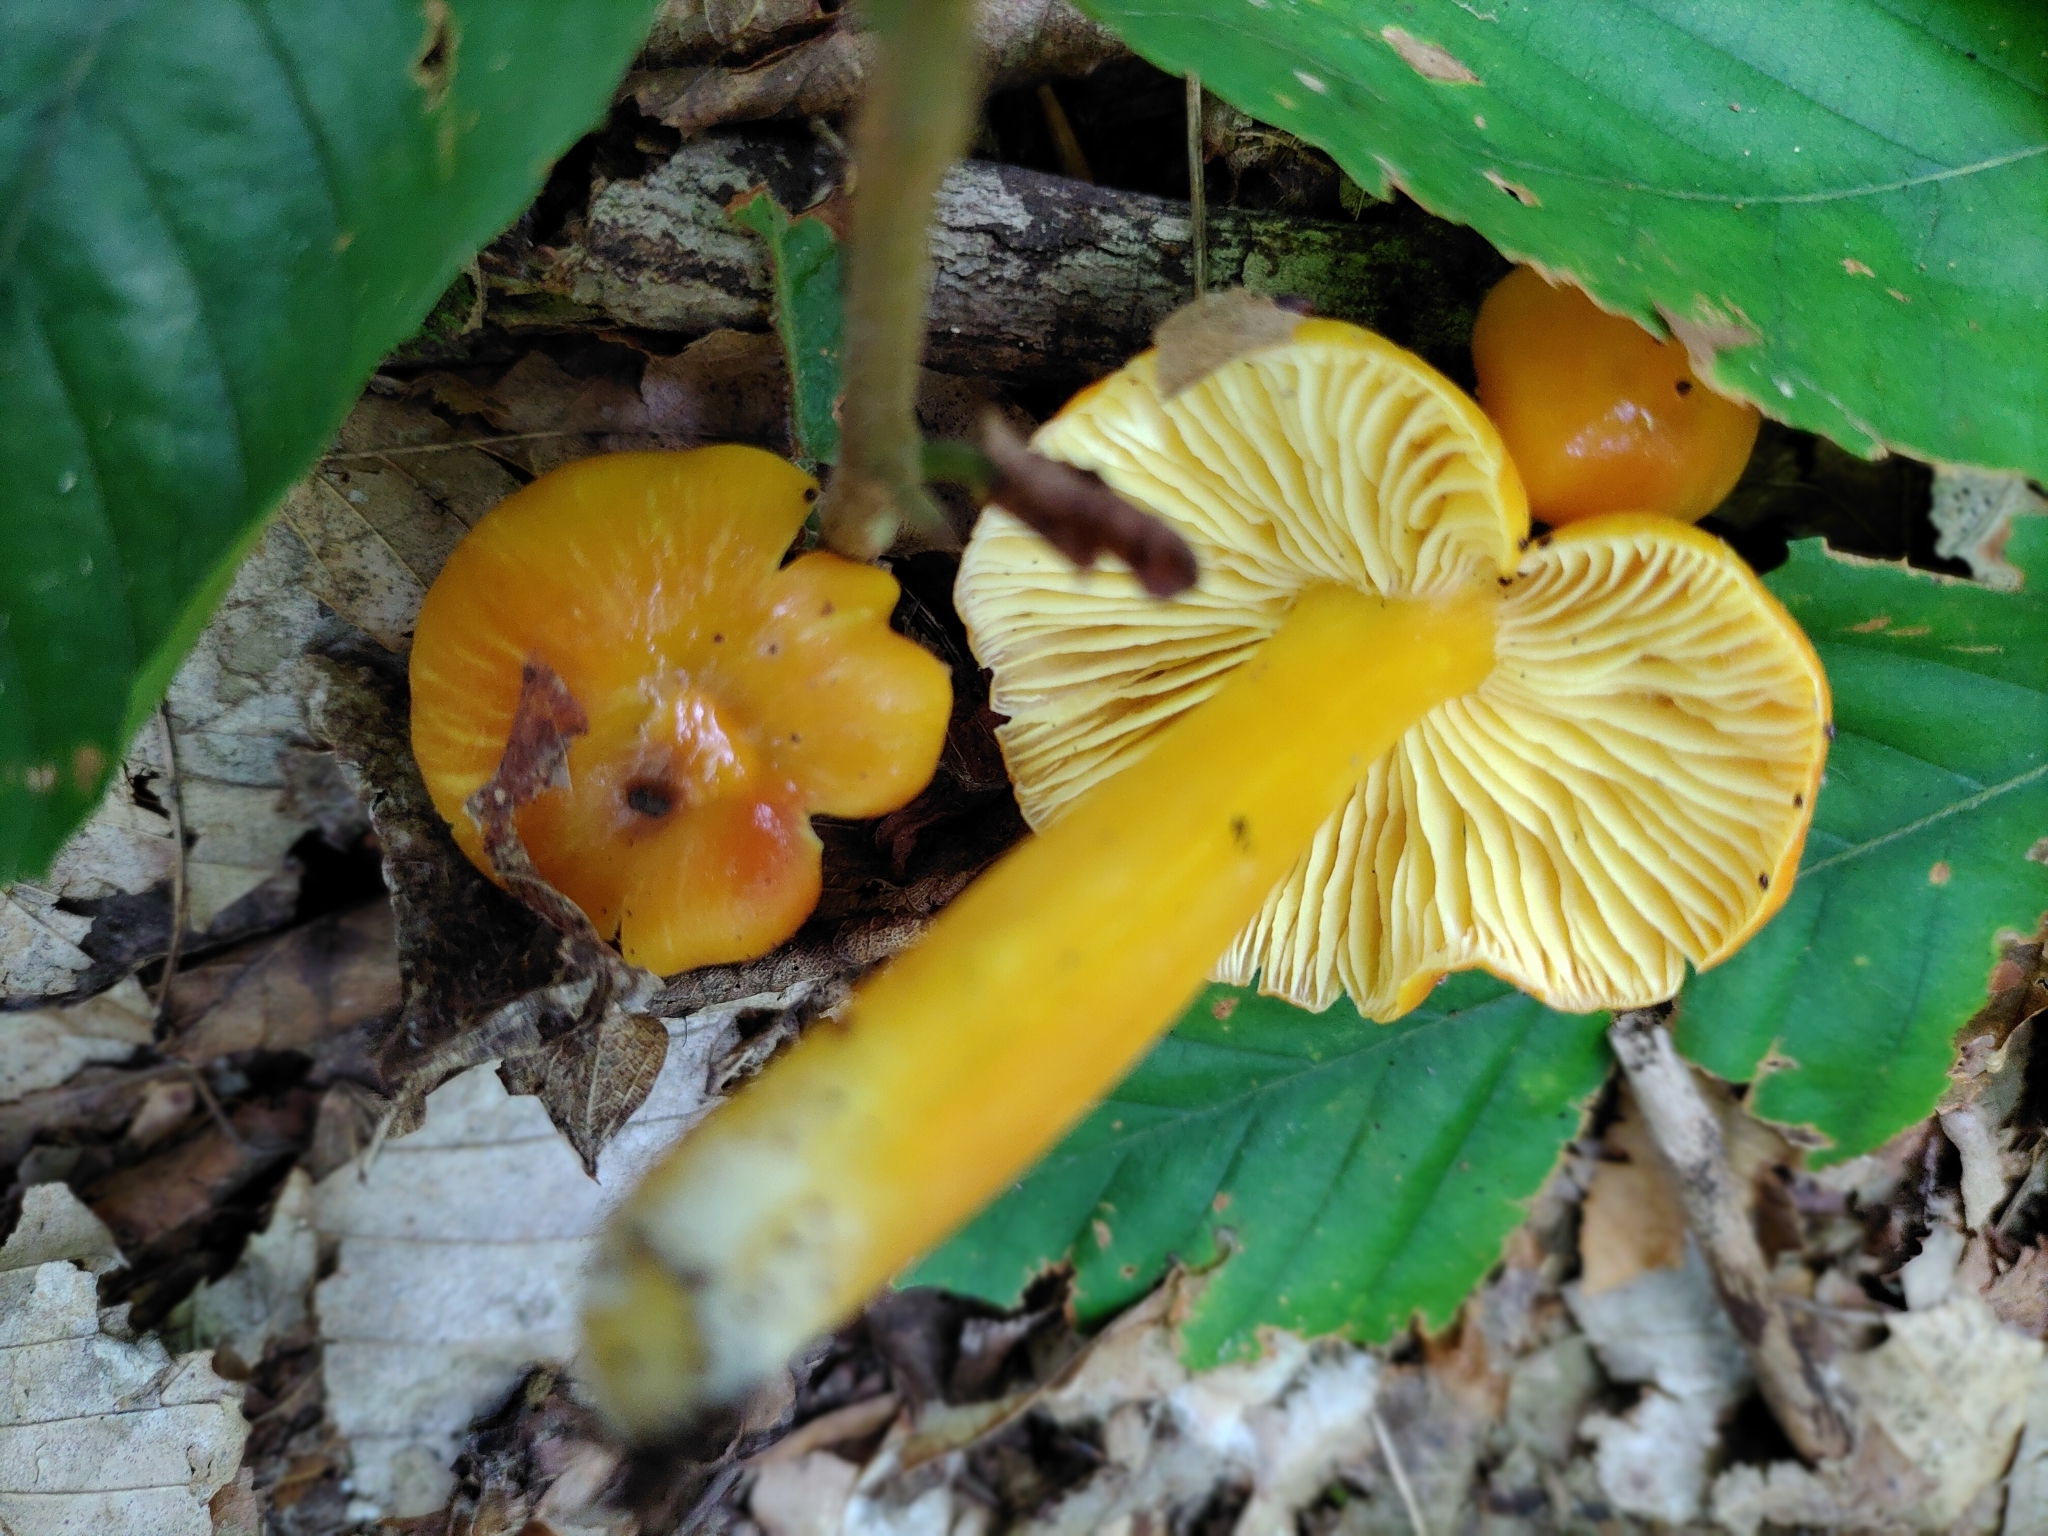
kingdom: Fungi
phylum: Basidiomycota
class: Agaricomycetes
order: Agaricales
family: Hygrophoraceae
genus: Hygrocybe
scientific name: Hygrocybe chlorophana
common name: Golden waxcap
